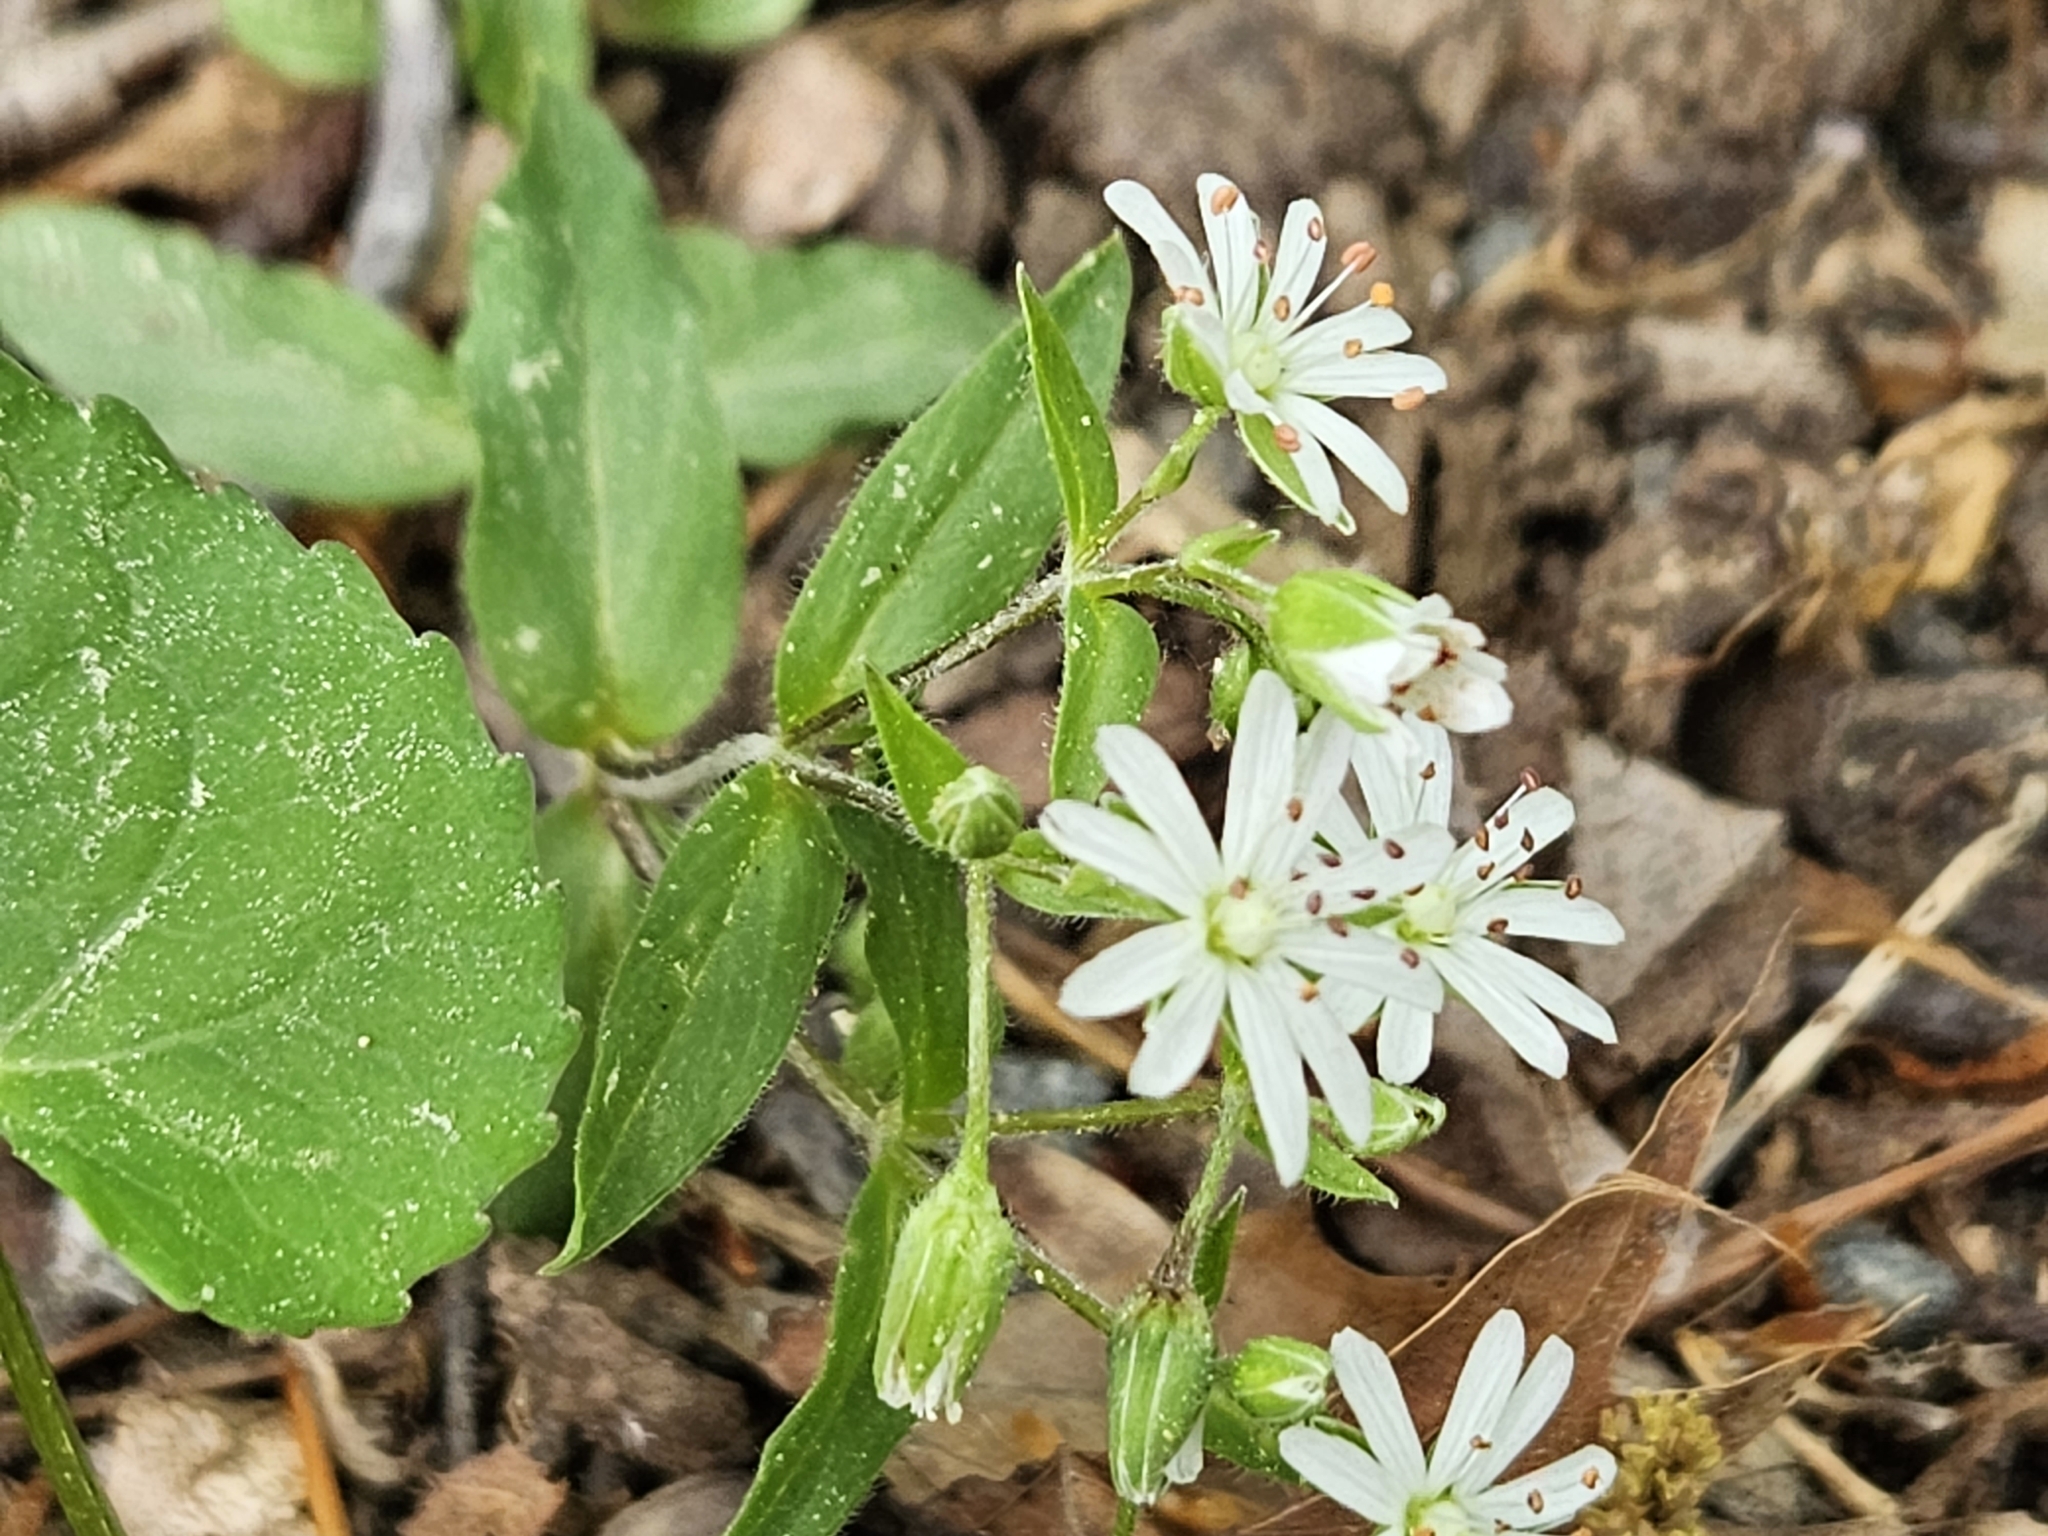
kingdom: Plantae
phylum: Tracheophyta
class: Magnoliopsida
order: Caryophyllales
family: Caryophyllaceae
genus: Stellaria
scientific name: Stellaria pubera
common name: Star chickweed
